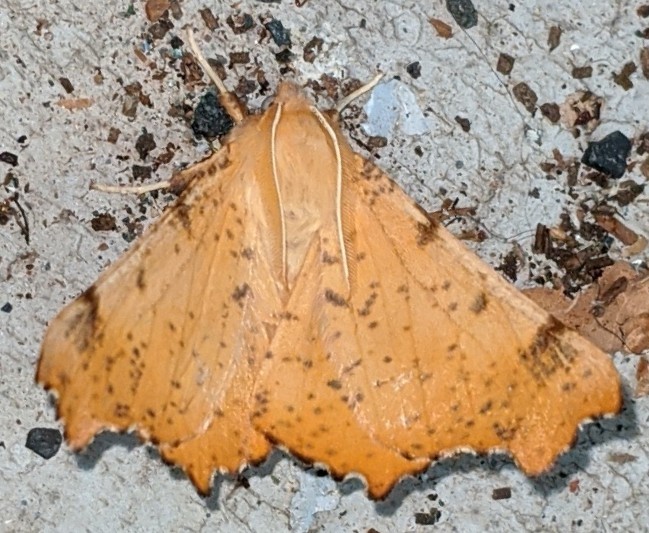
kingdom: Animalia
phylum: Arthropoda
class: Insecta
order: Lepidoptera
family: Geometridae
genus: Ennomos
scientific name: Ennomos magnaria
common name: Maple spanworm
